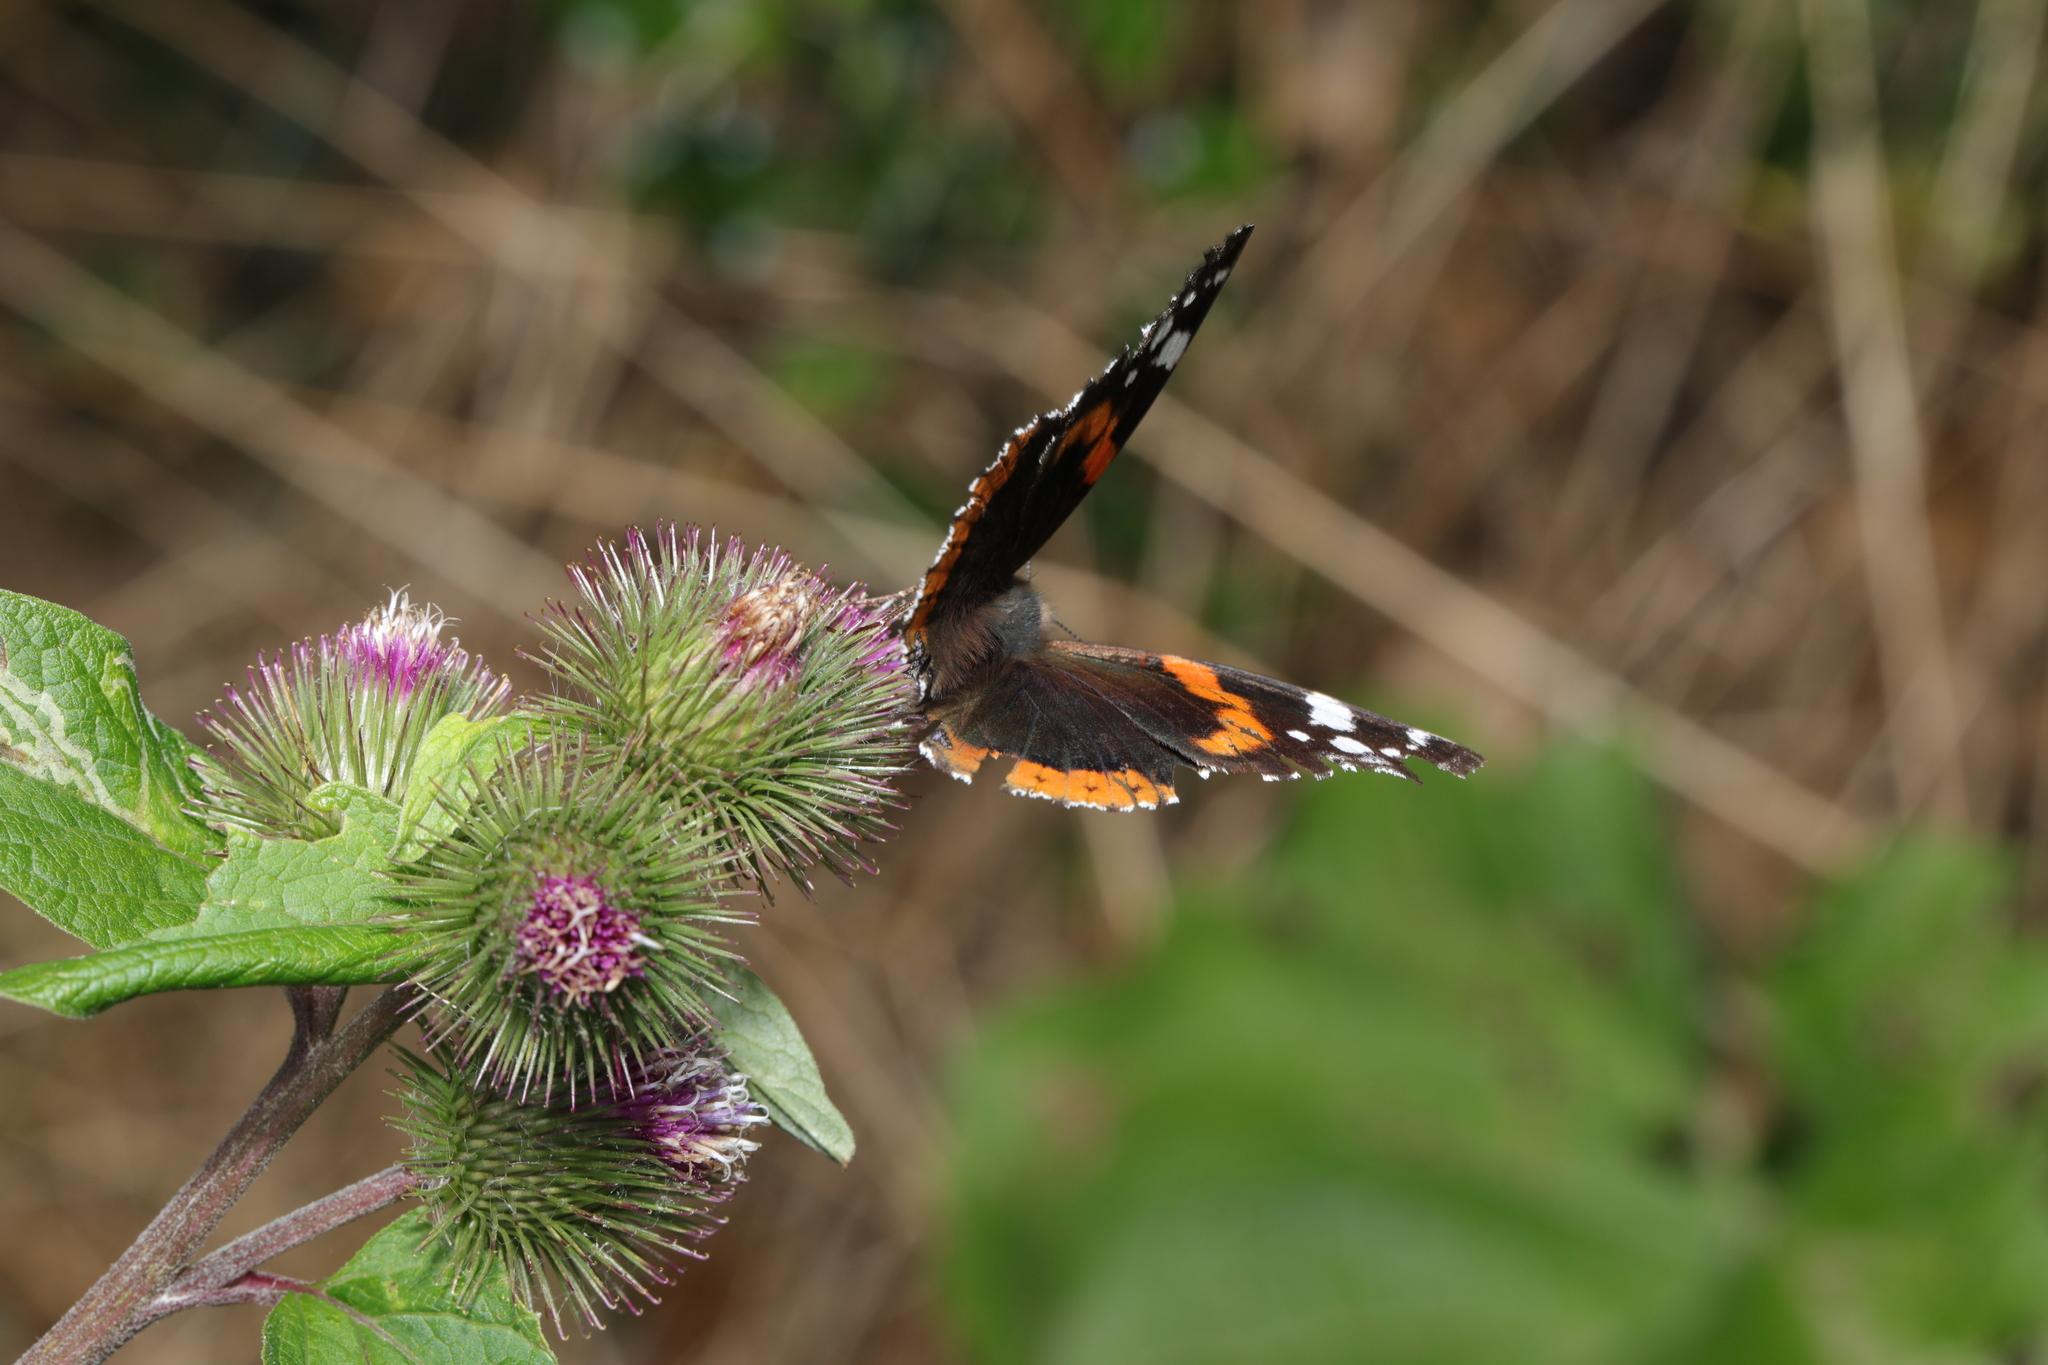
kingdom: Animalia
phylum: Arthropoda
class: Insecta
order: Lepidoptera
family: Nymphalidae
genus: Vanessa
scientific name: Vanessa atalanta
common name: Red admiral
